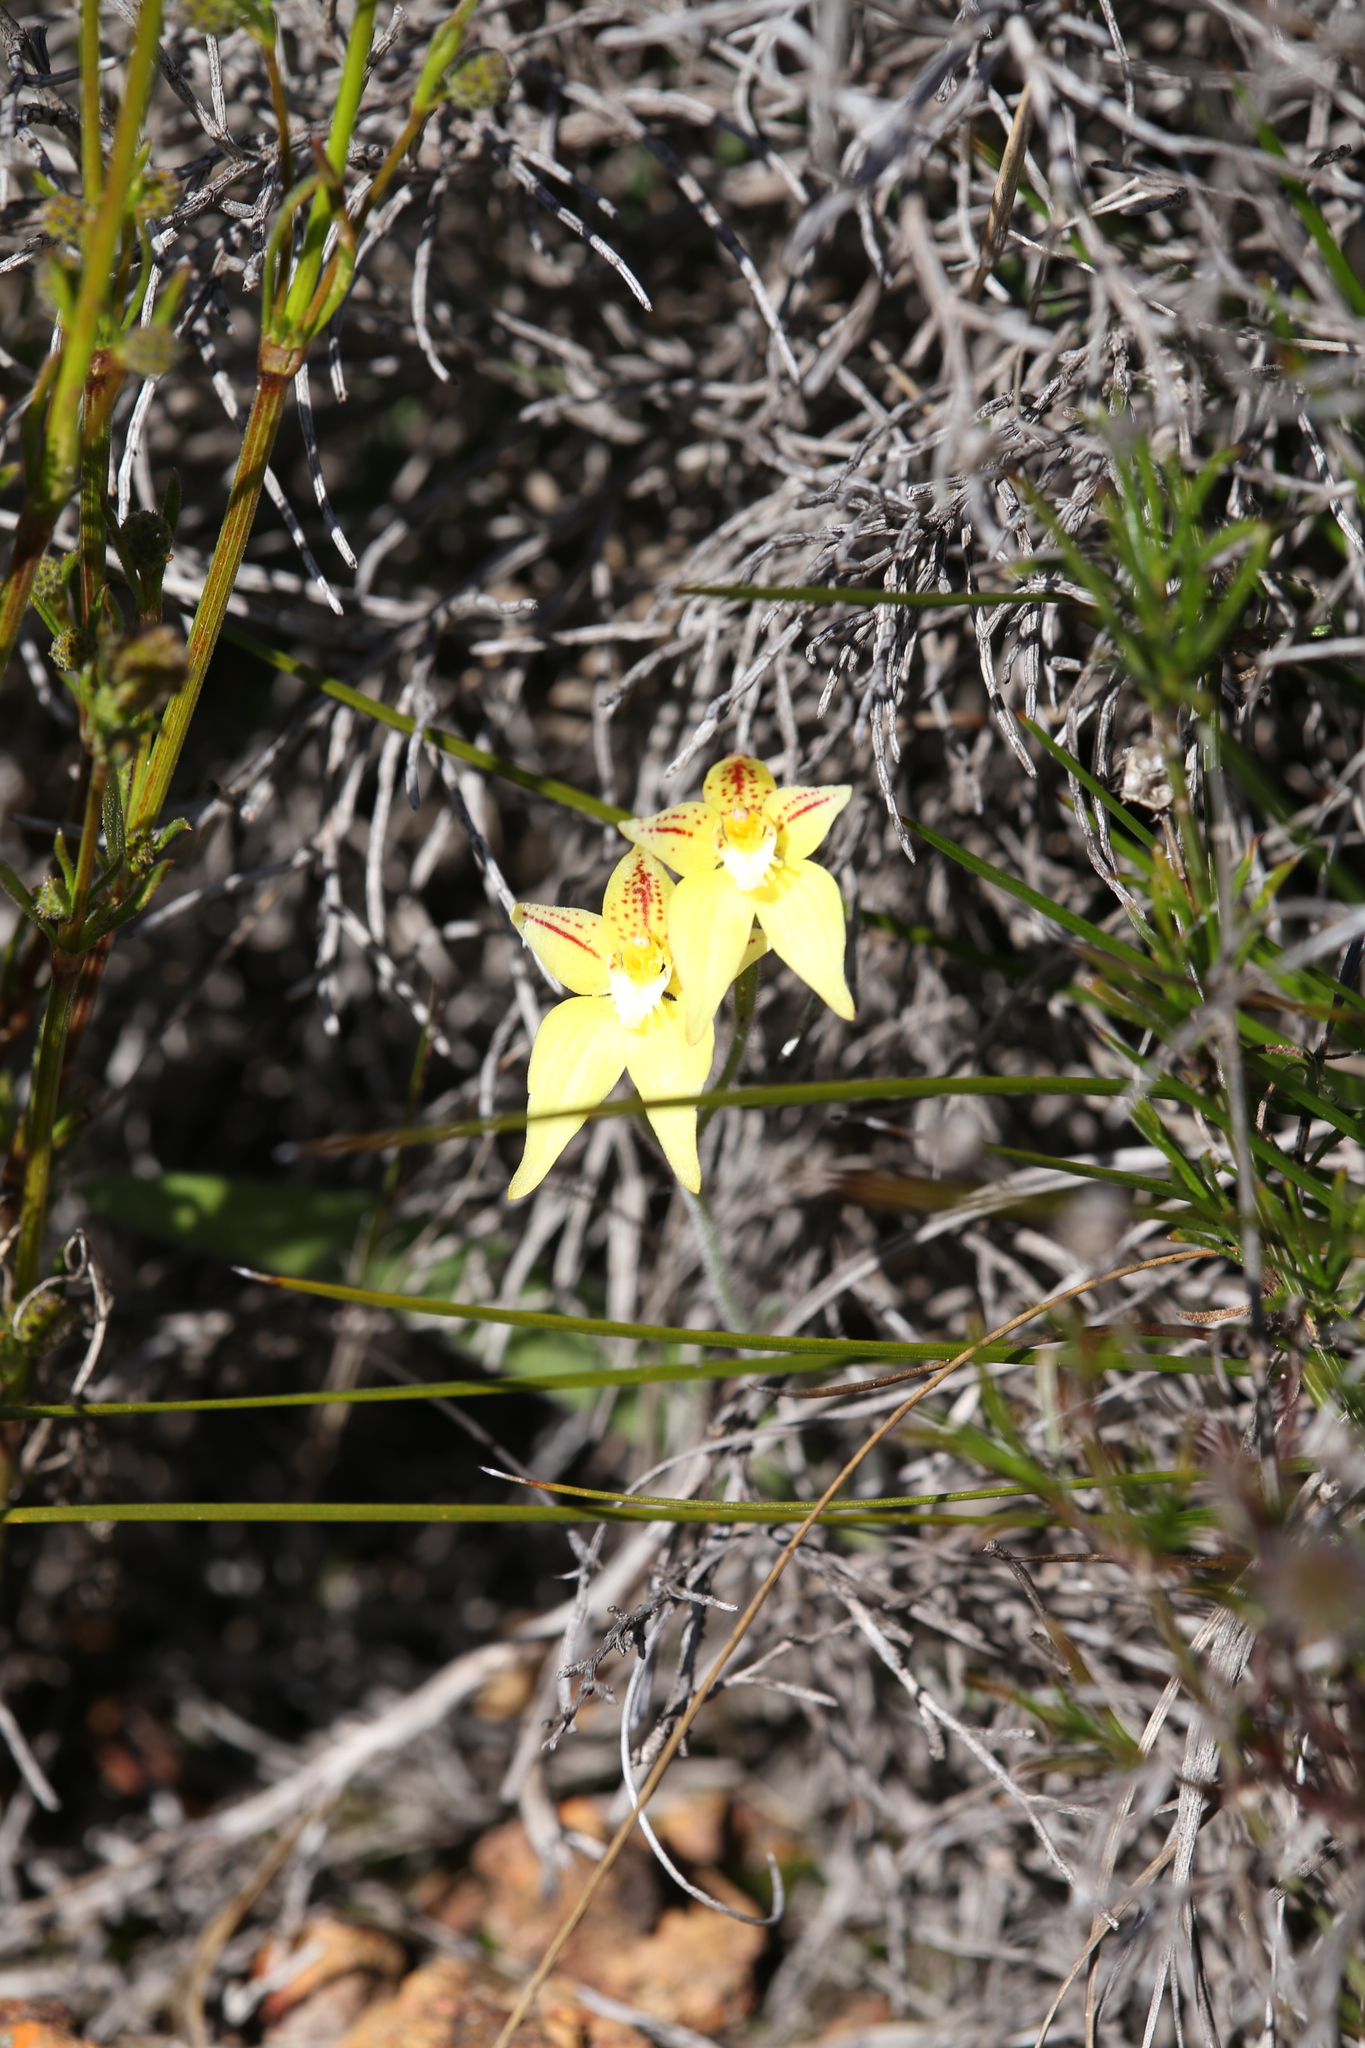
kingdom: Plantae
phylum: Tracheophyta
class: Liliopsida
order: Asparagales
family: Orchidaceae
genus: Caladenia
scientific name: Caladenia flava
